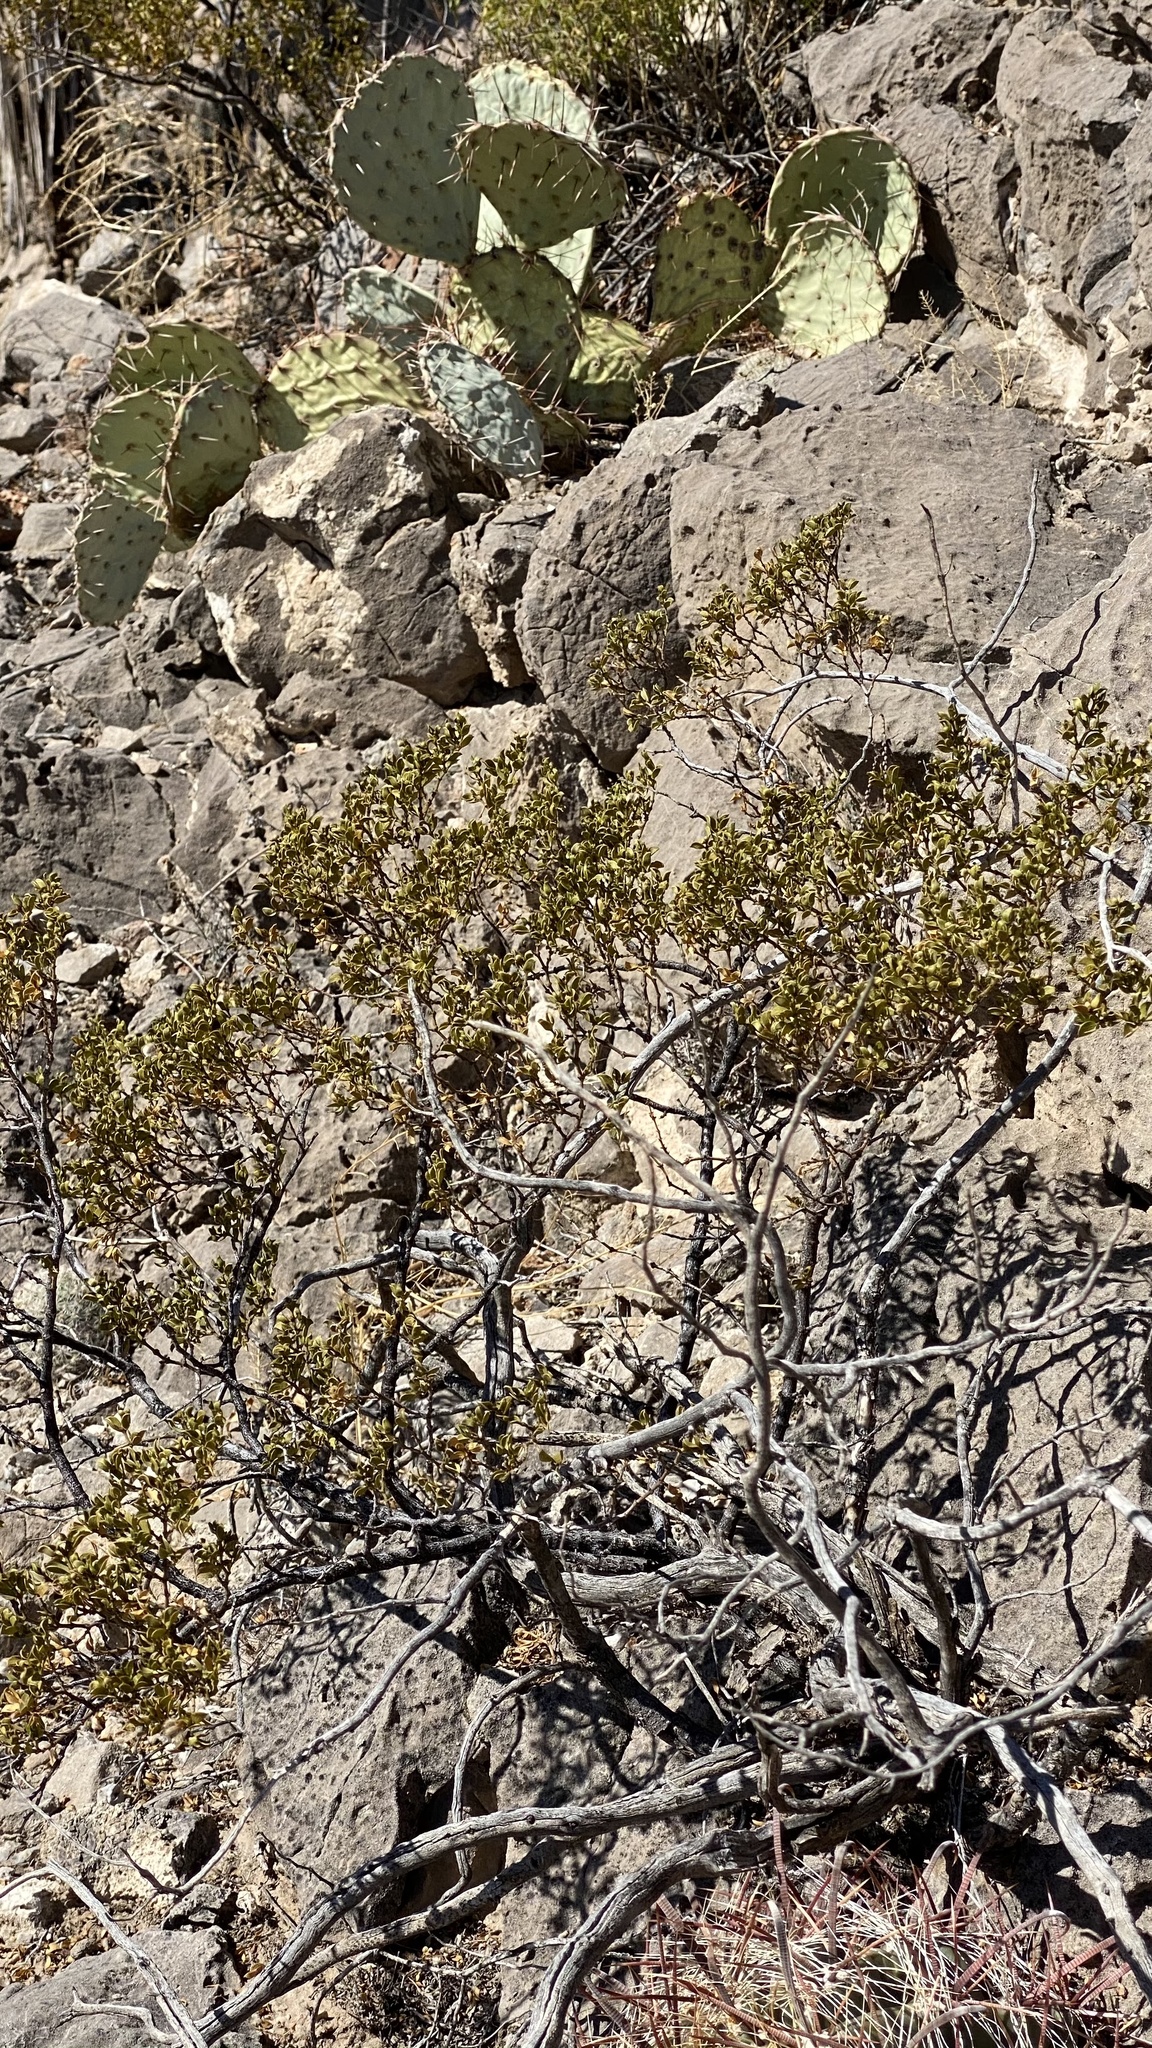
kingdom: Plantae
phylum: Tracheophyta
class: Magnoliopsida
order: Zygophyllales
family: Zygophyllaceae
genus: Larrea
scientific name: Larrea tridentata
